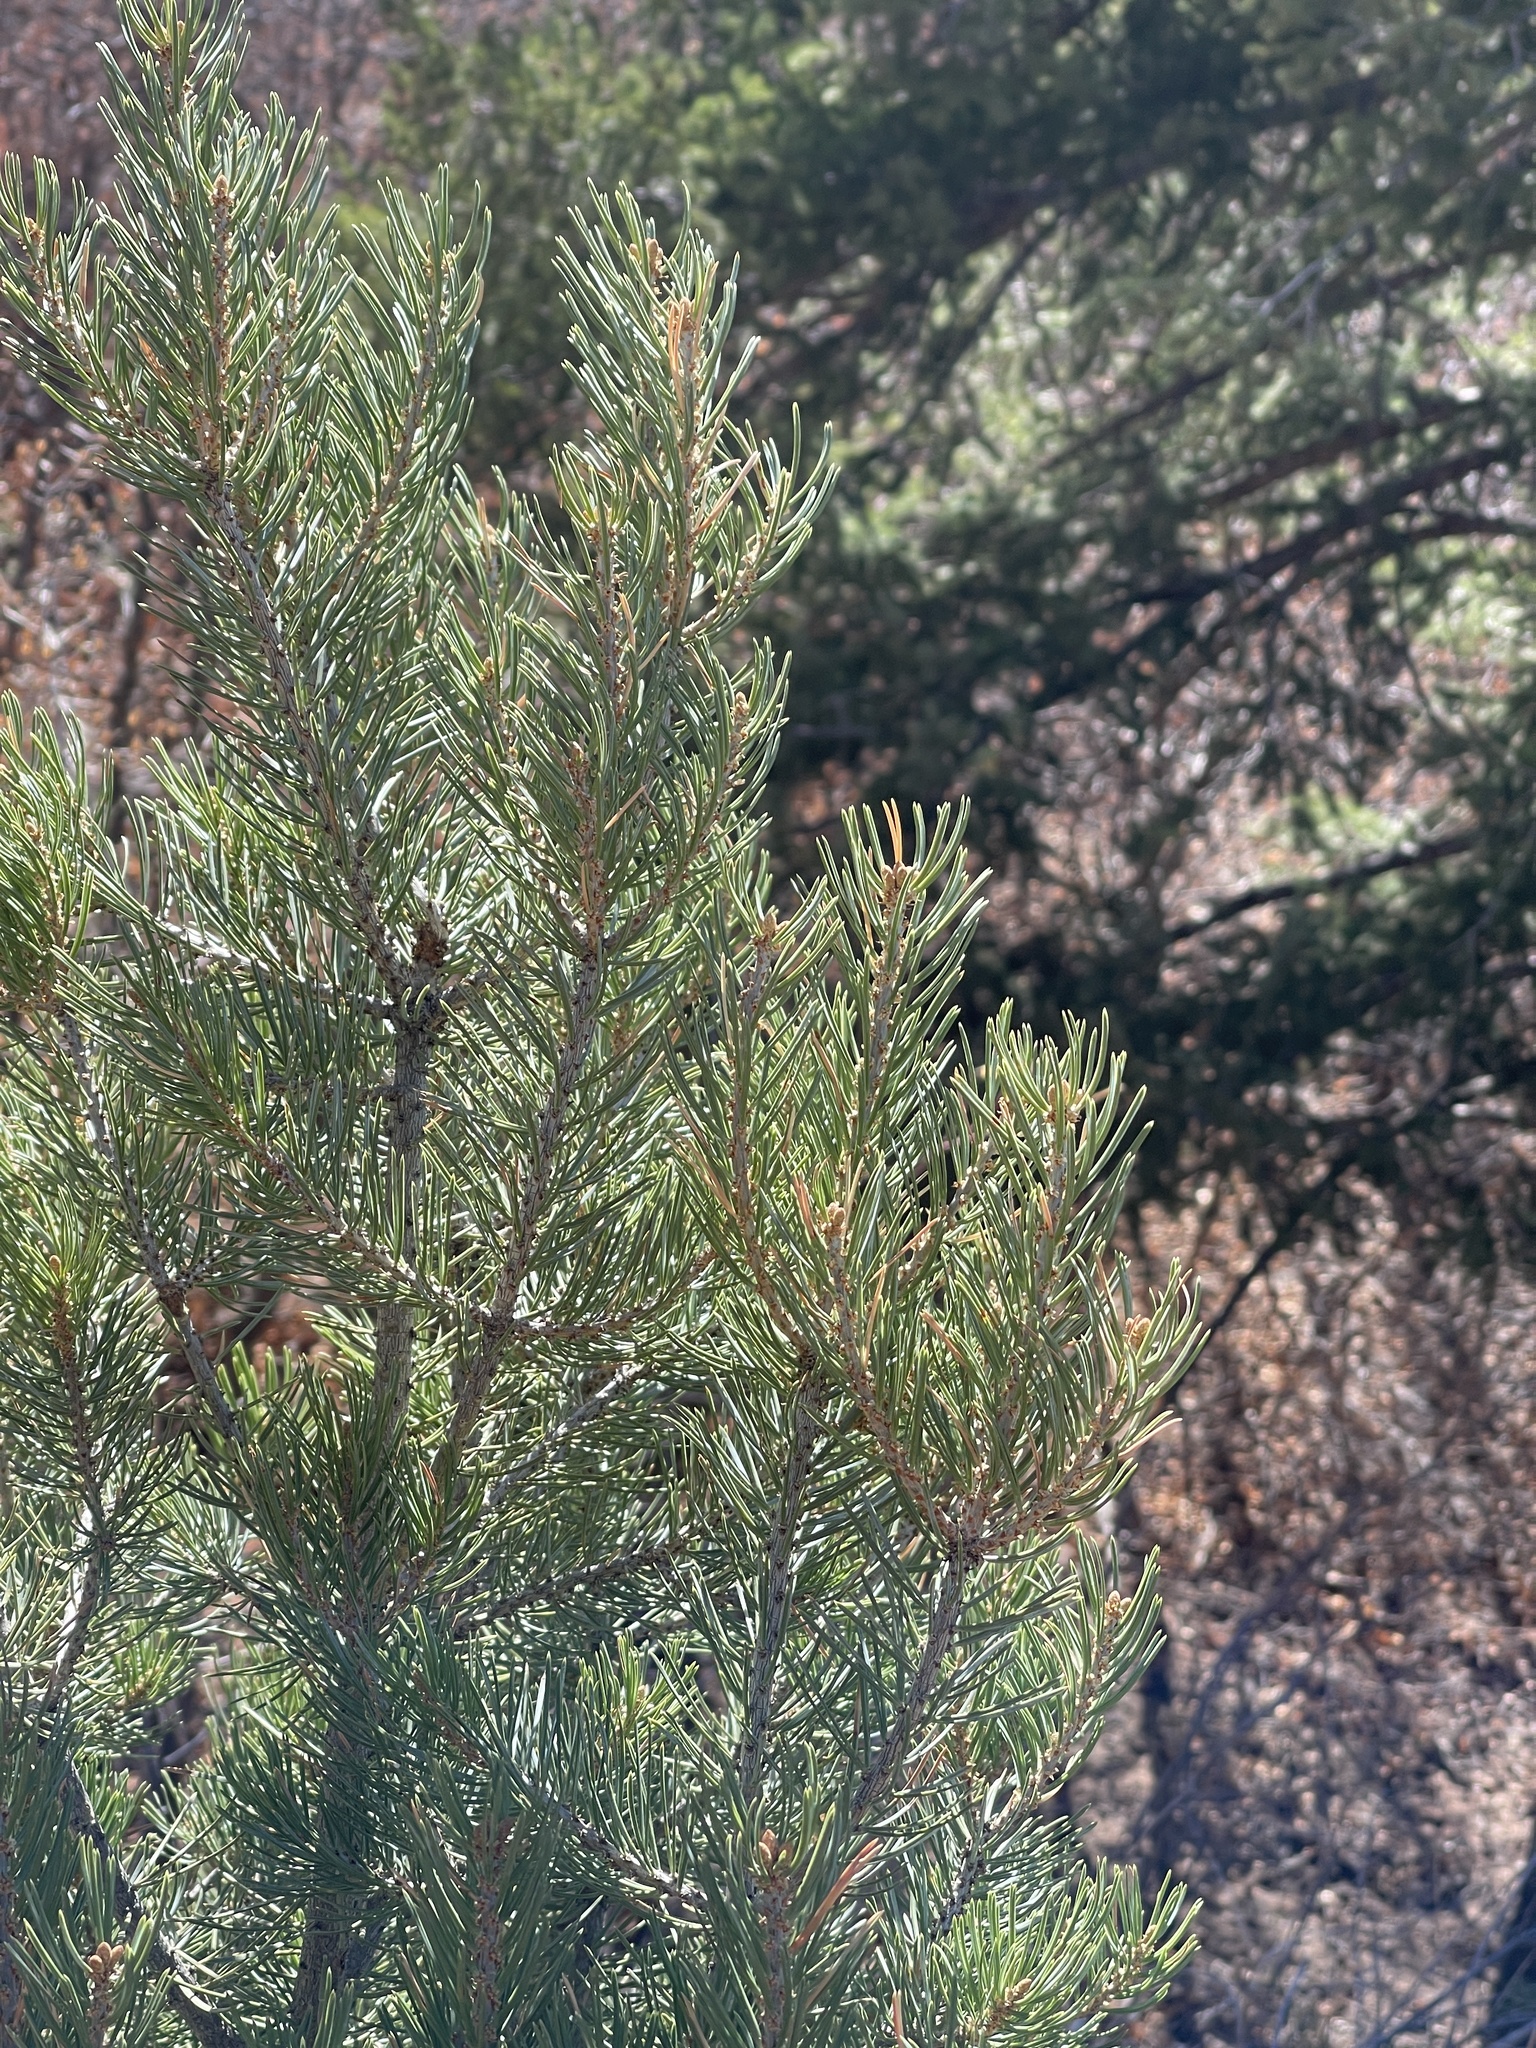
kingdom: Plantae
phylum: Tracheophyta
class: Pinopsida
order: Pinales
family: Pinaceae
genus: Pinus
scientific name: Pinus edulis
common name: Colorado pinyon
